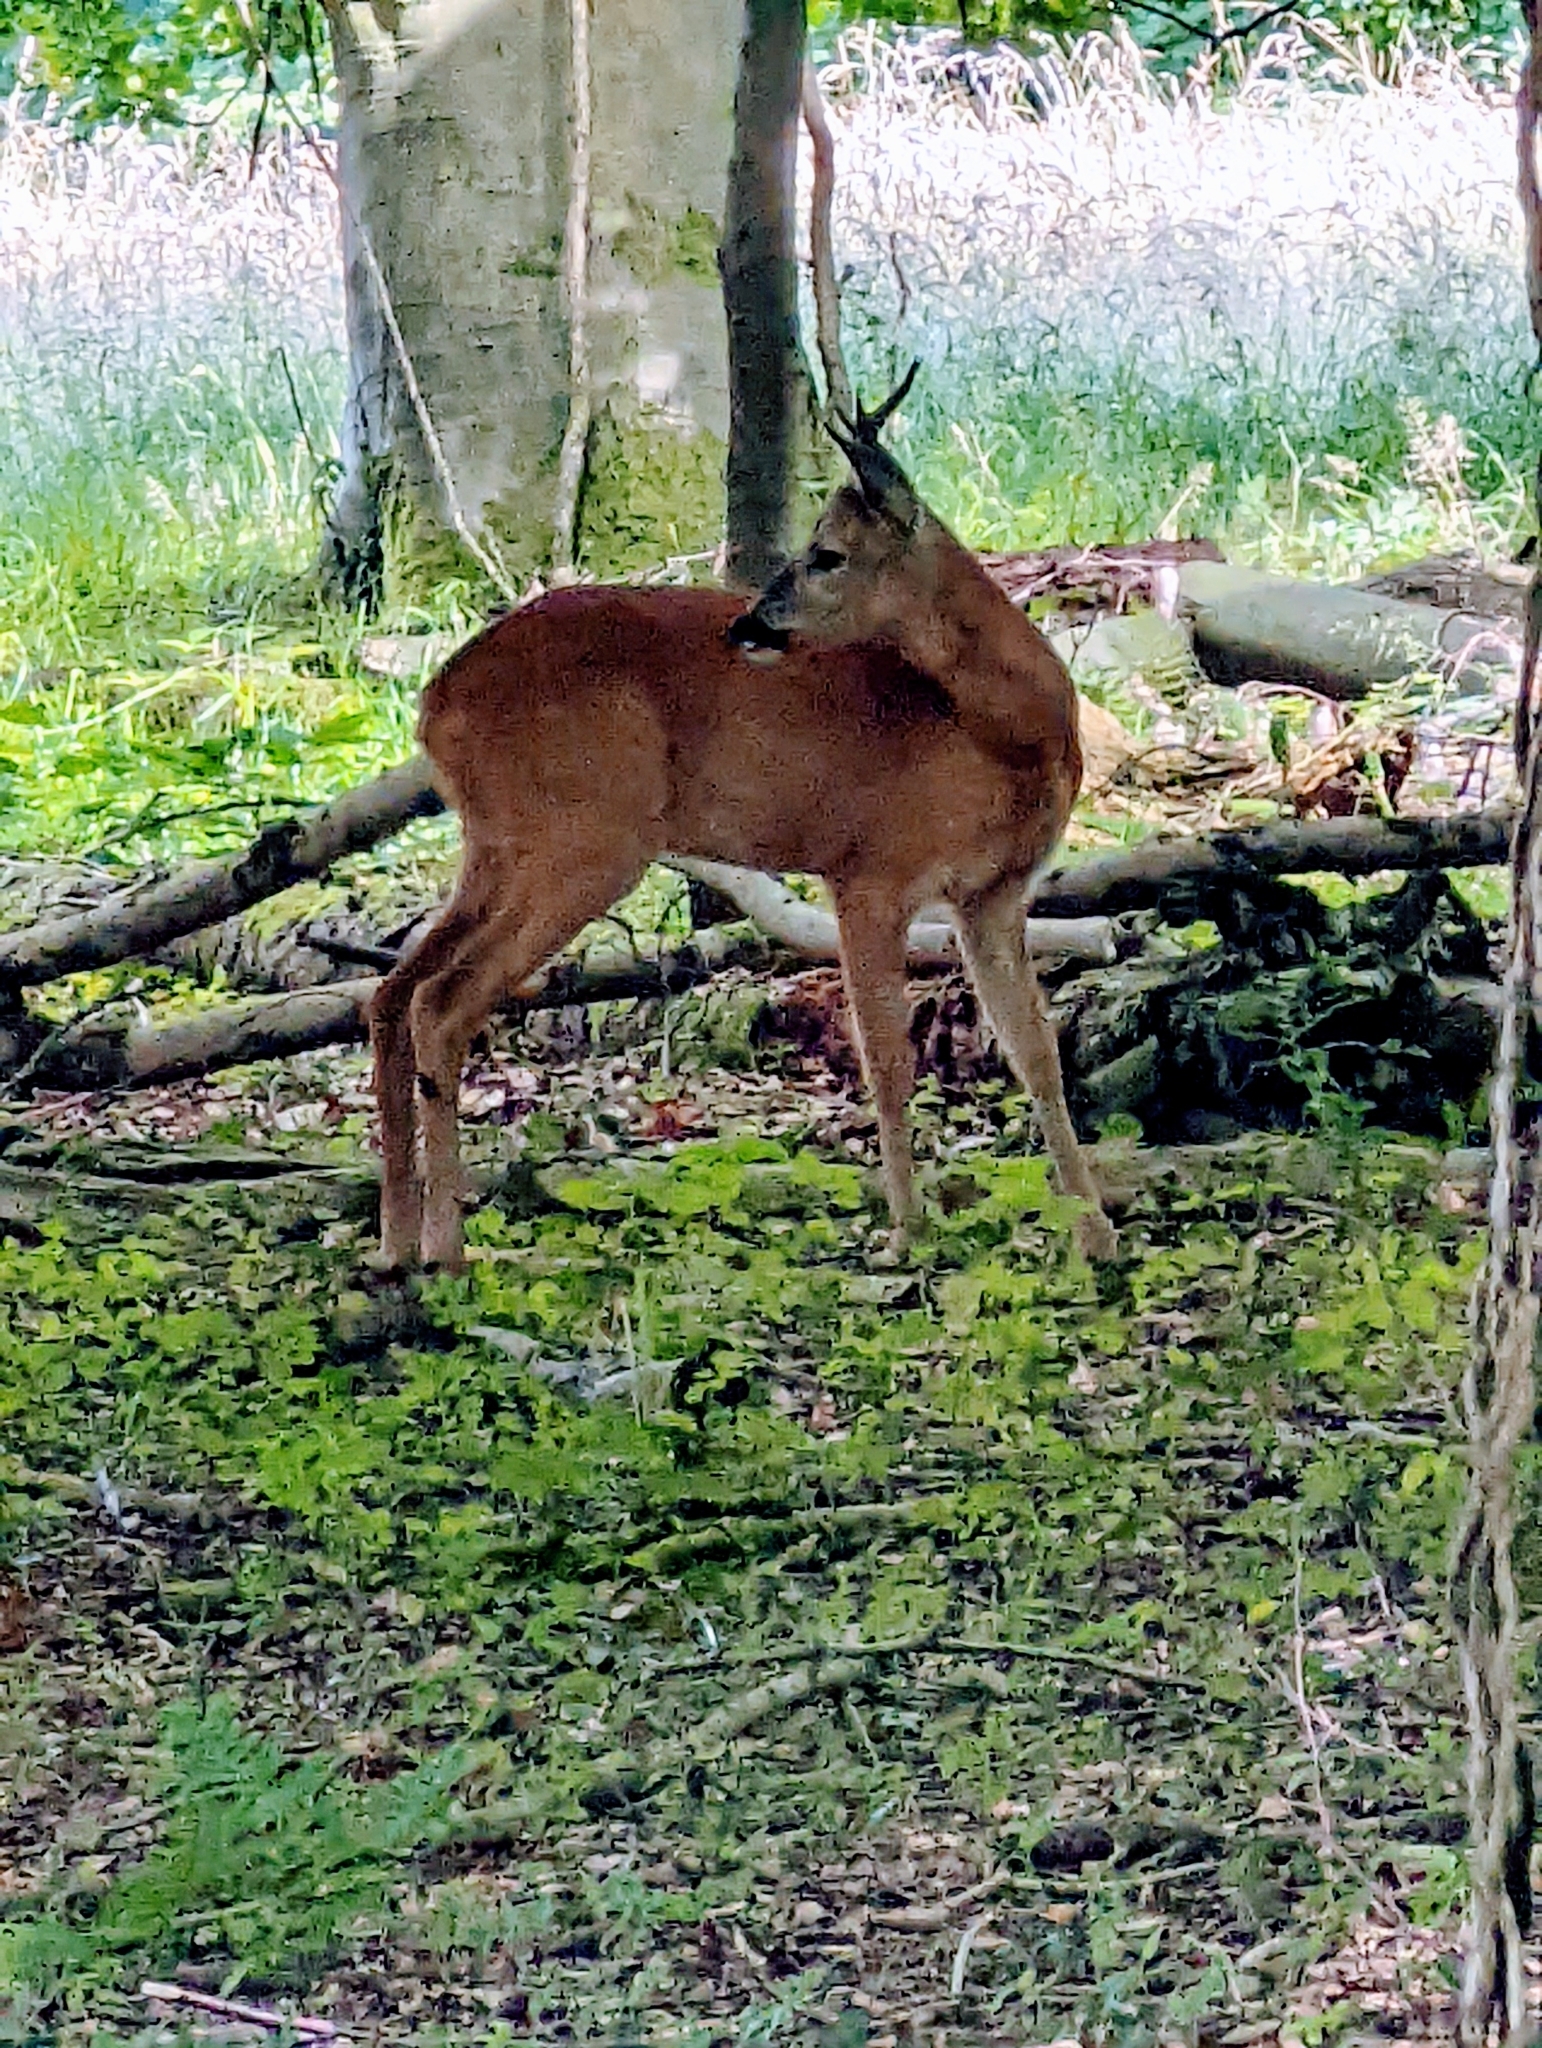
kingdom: Animalia
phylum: Chordata
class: Mammalia
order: Artiodactyla
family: Cervidae
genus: Capreolus
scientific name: Capreolus capreolus
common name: Western roe deer
